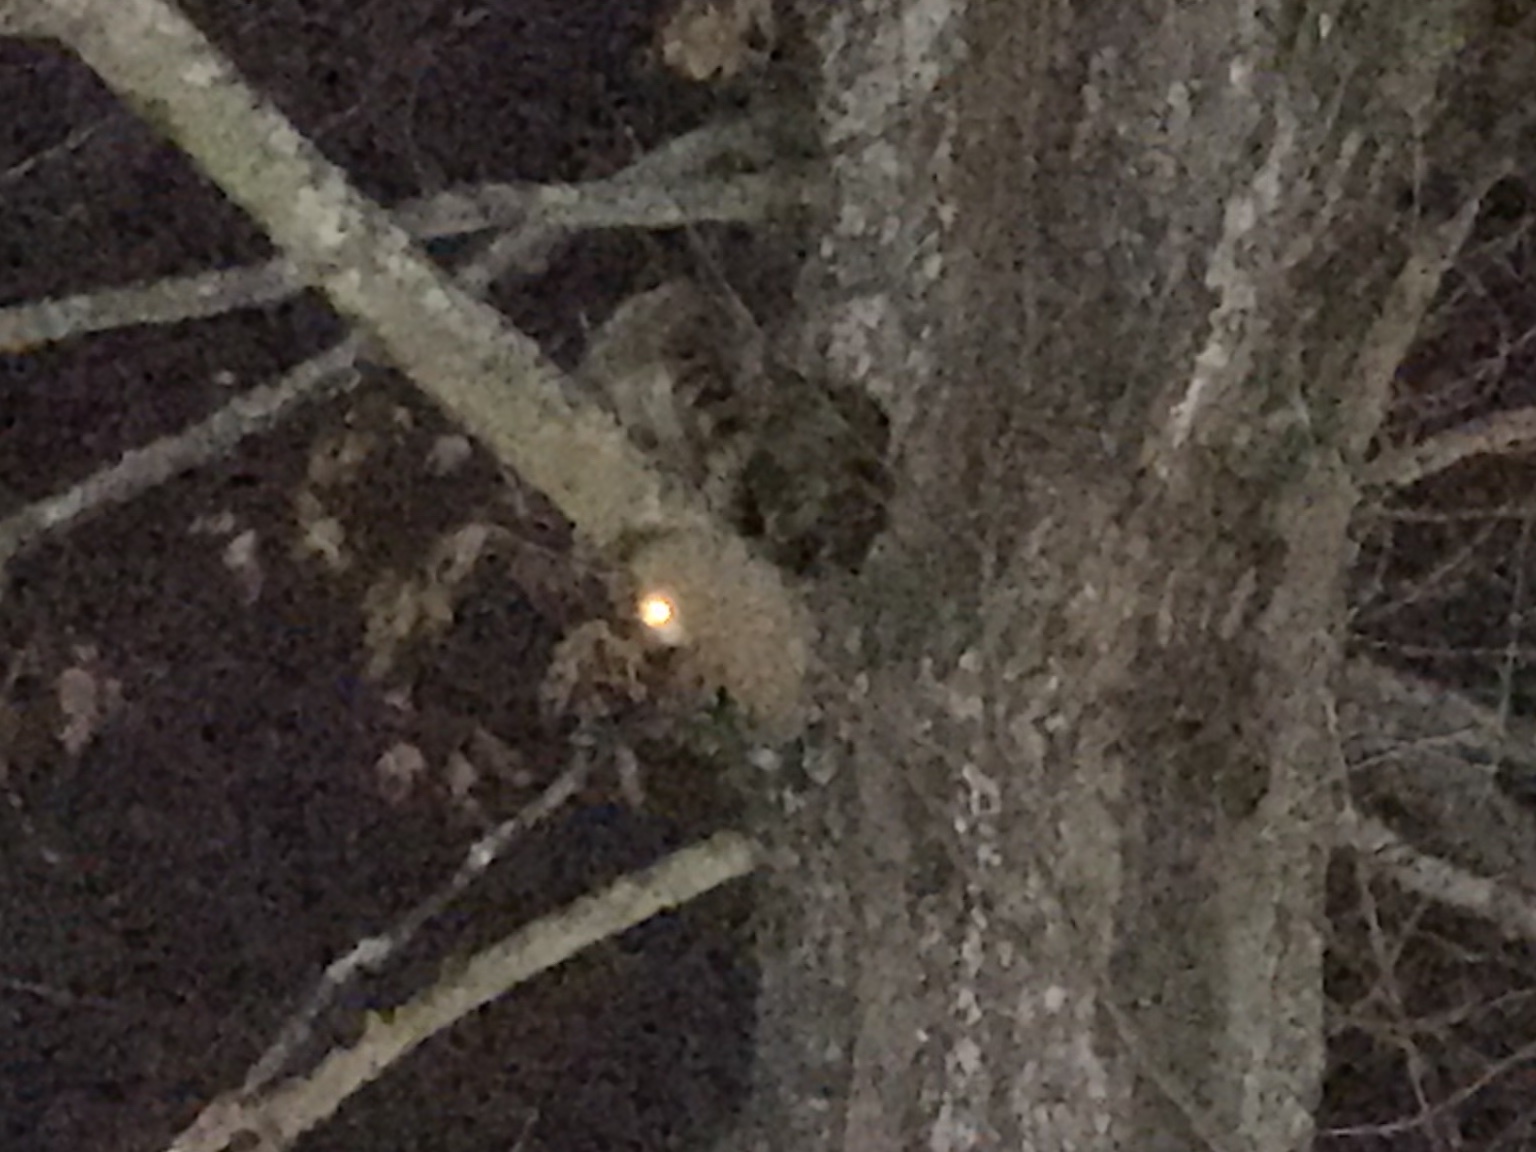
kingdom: Animalia
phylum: Chordata
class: Mammalia
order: Carnivora
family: Procyonidae
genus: Procyon
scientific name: Procyon lotor
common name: Raccoon
